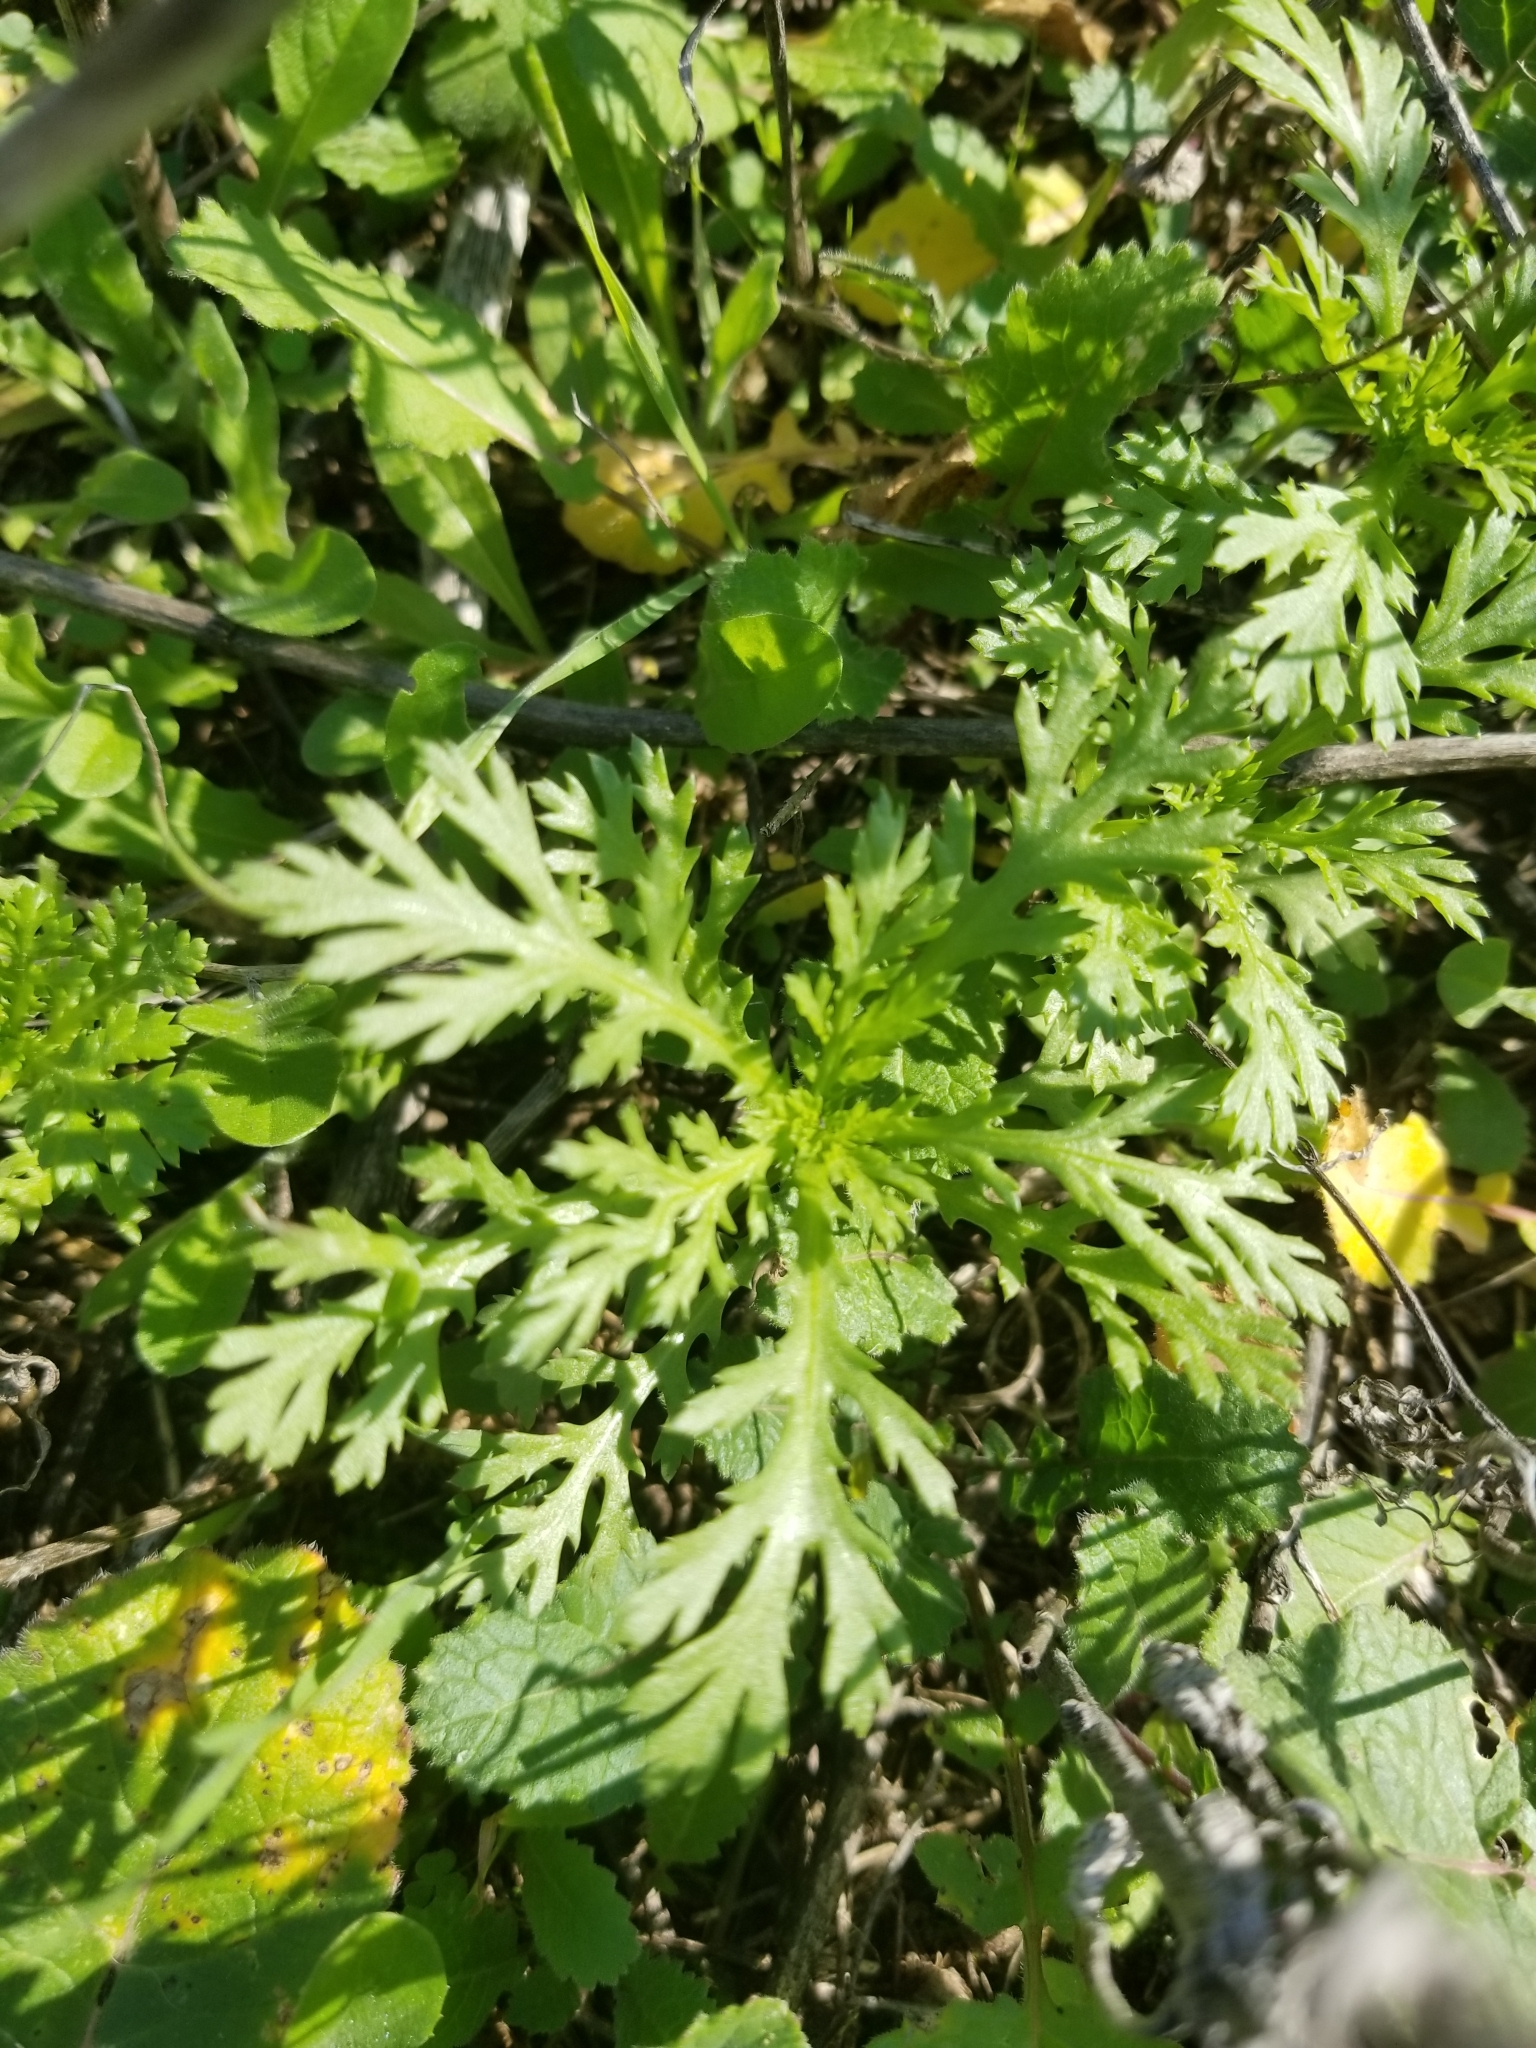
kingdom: Plantae
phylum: Tracheophyta
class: Magnoliopsida
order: Asterales
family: Asteraceae
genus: Glebionis
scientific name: Glebionis coronaria
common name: Crowndaisy
